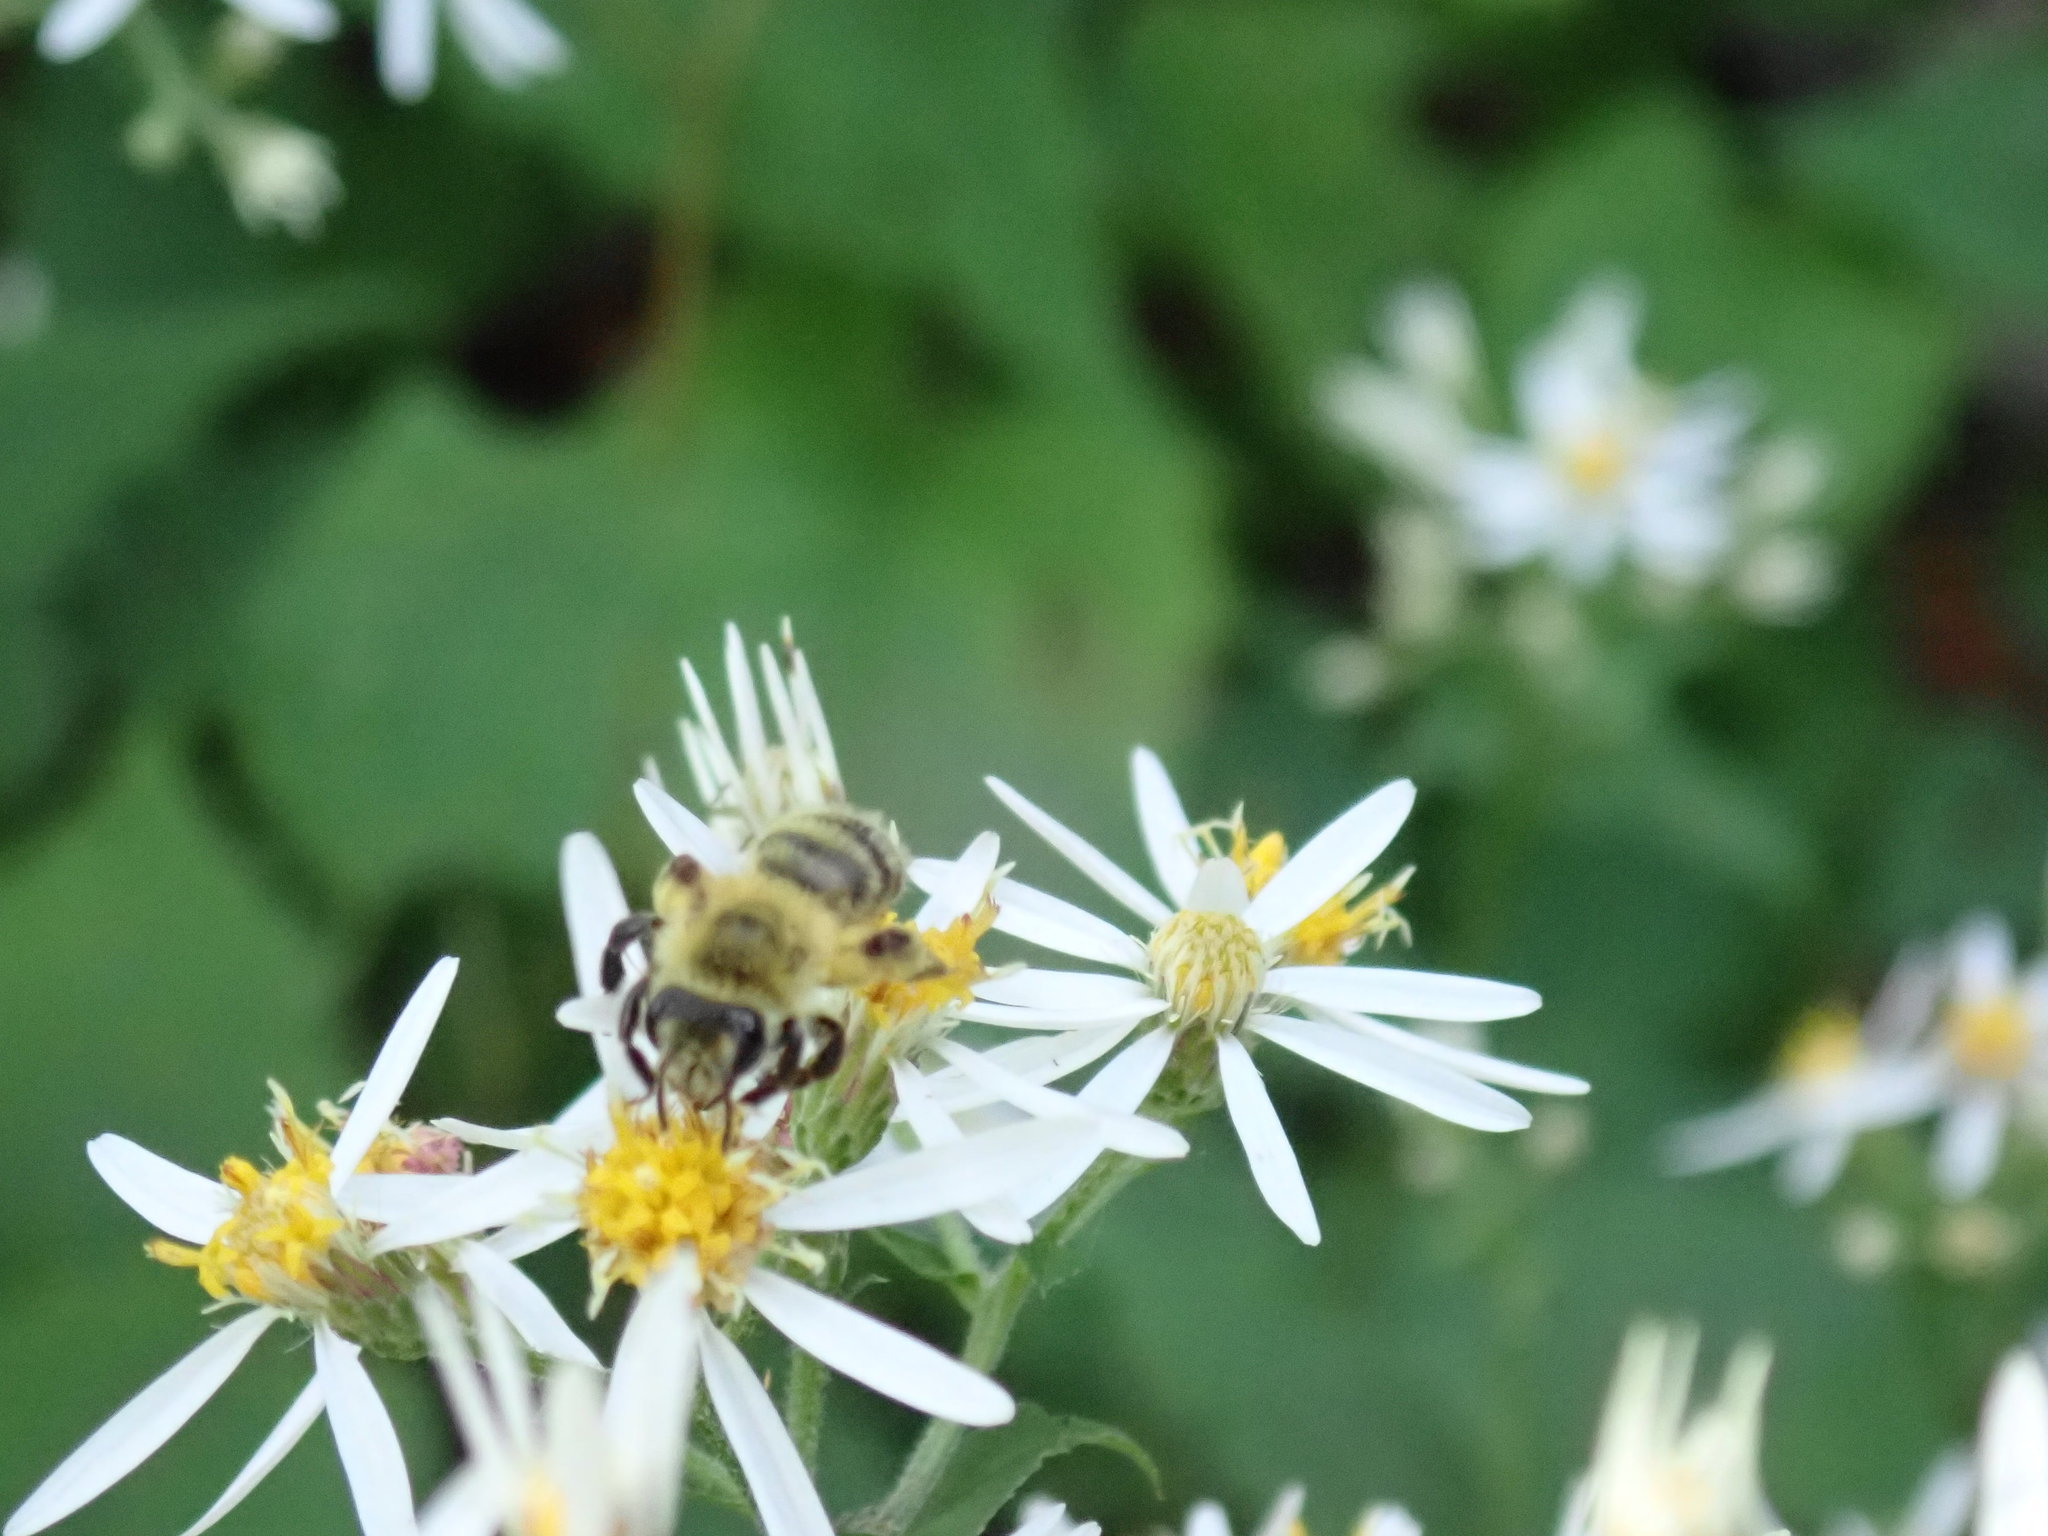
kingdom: Animalia
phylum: Arthropoda
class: Insecta
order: Hymenoptera
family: Andrenidae
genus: Andrena
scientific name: Andrena hirticincta
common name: Hairy-banded mining bee
